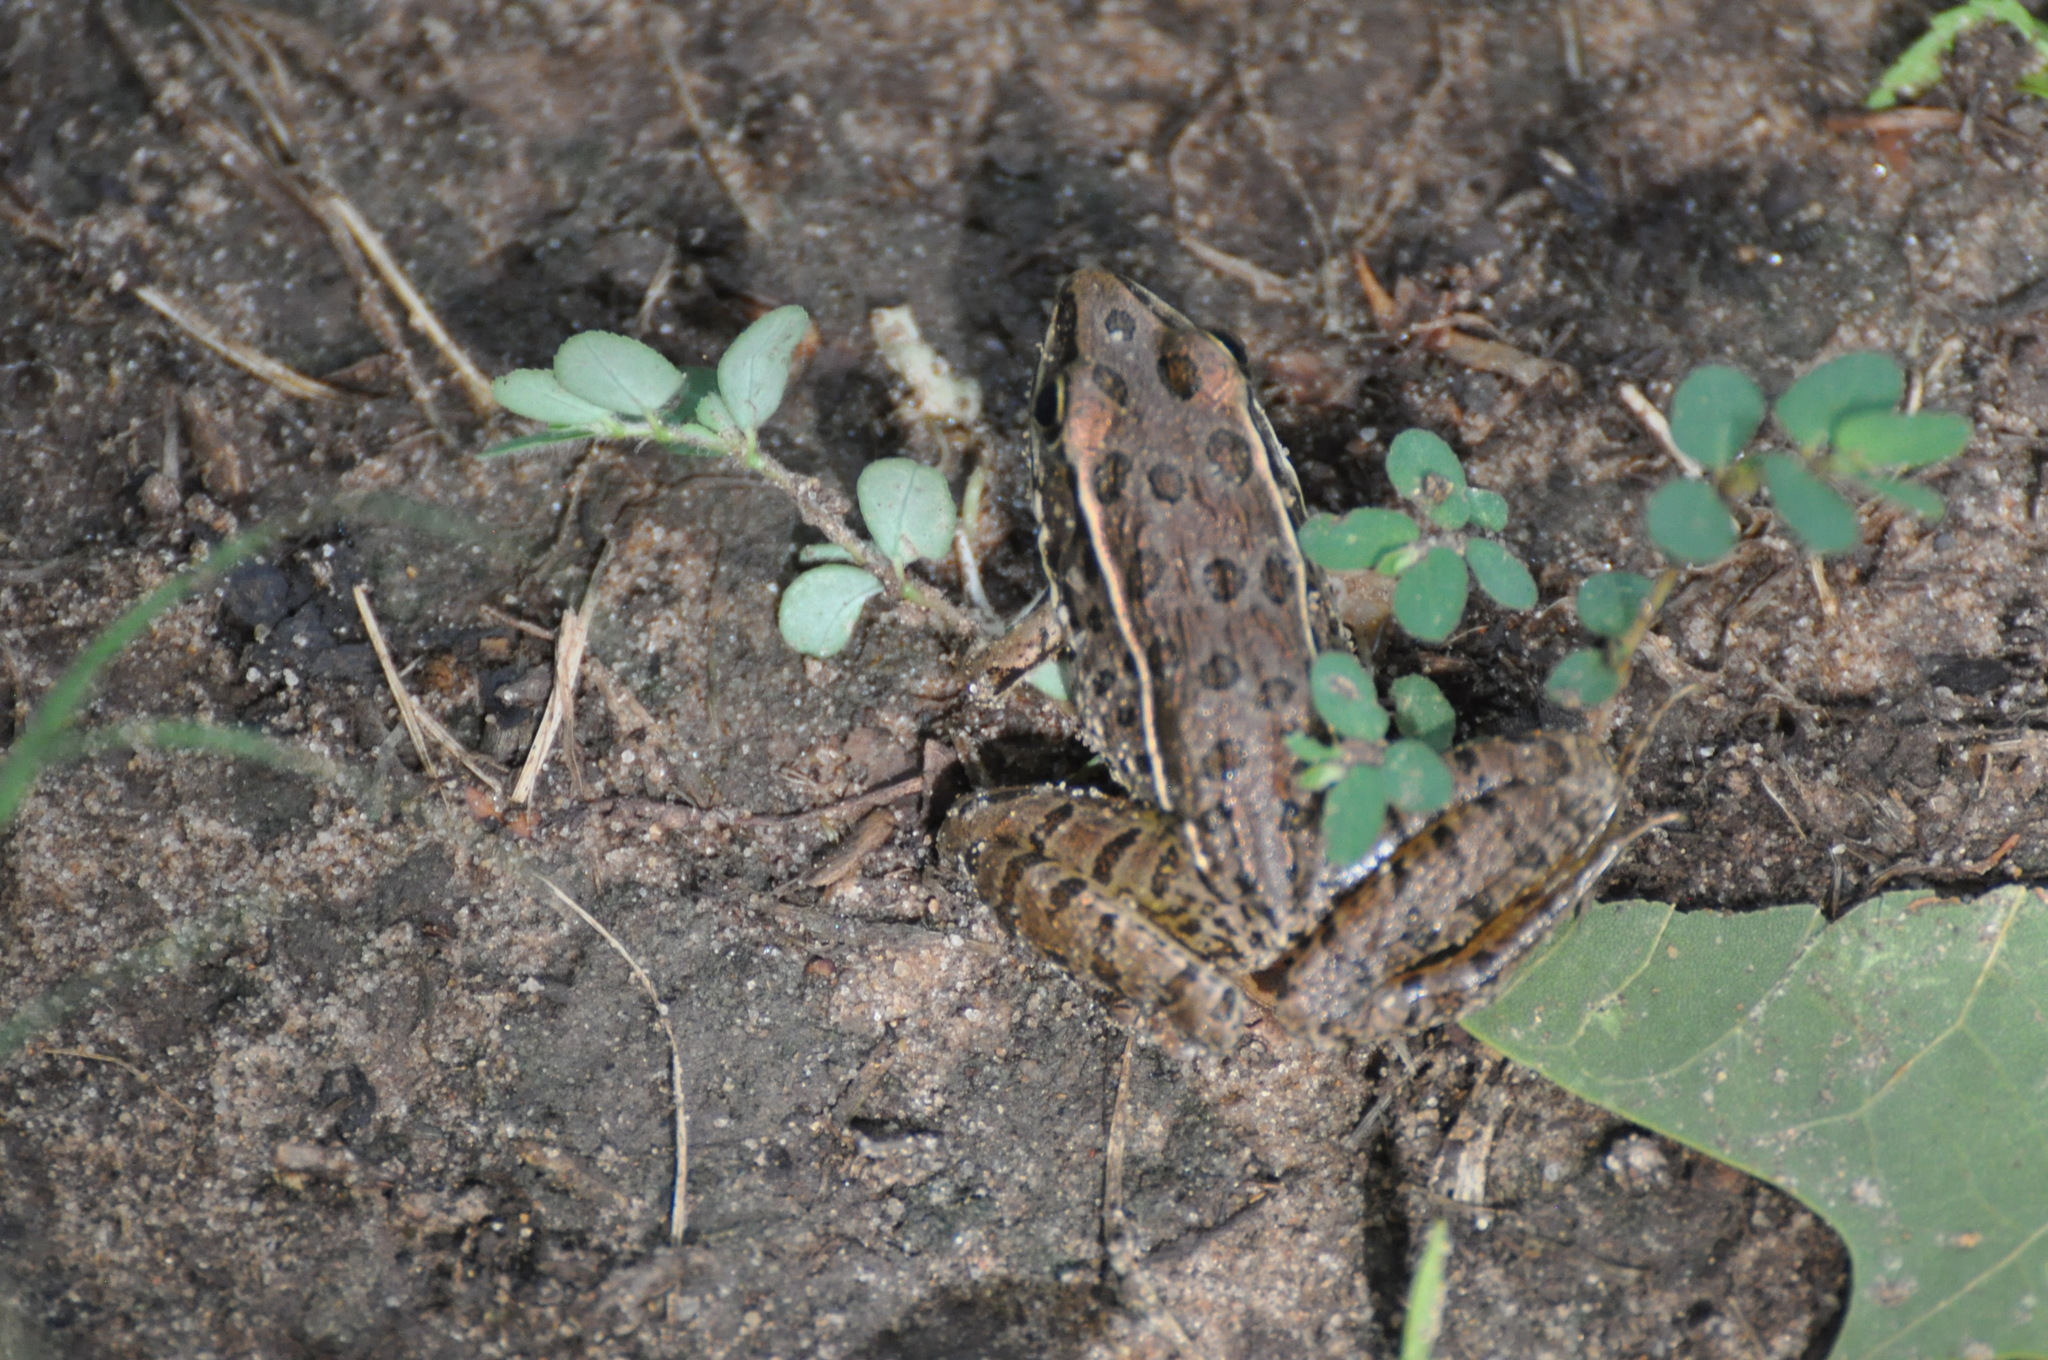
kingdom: Animalia
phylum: Chordata
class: Amphibia
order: Anura
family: Ranidae
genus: Lithobates
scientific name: Lithobates blairi
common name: Plains leopard frog
